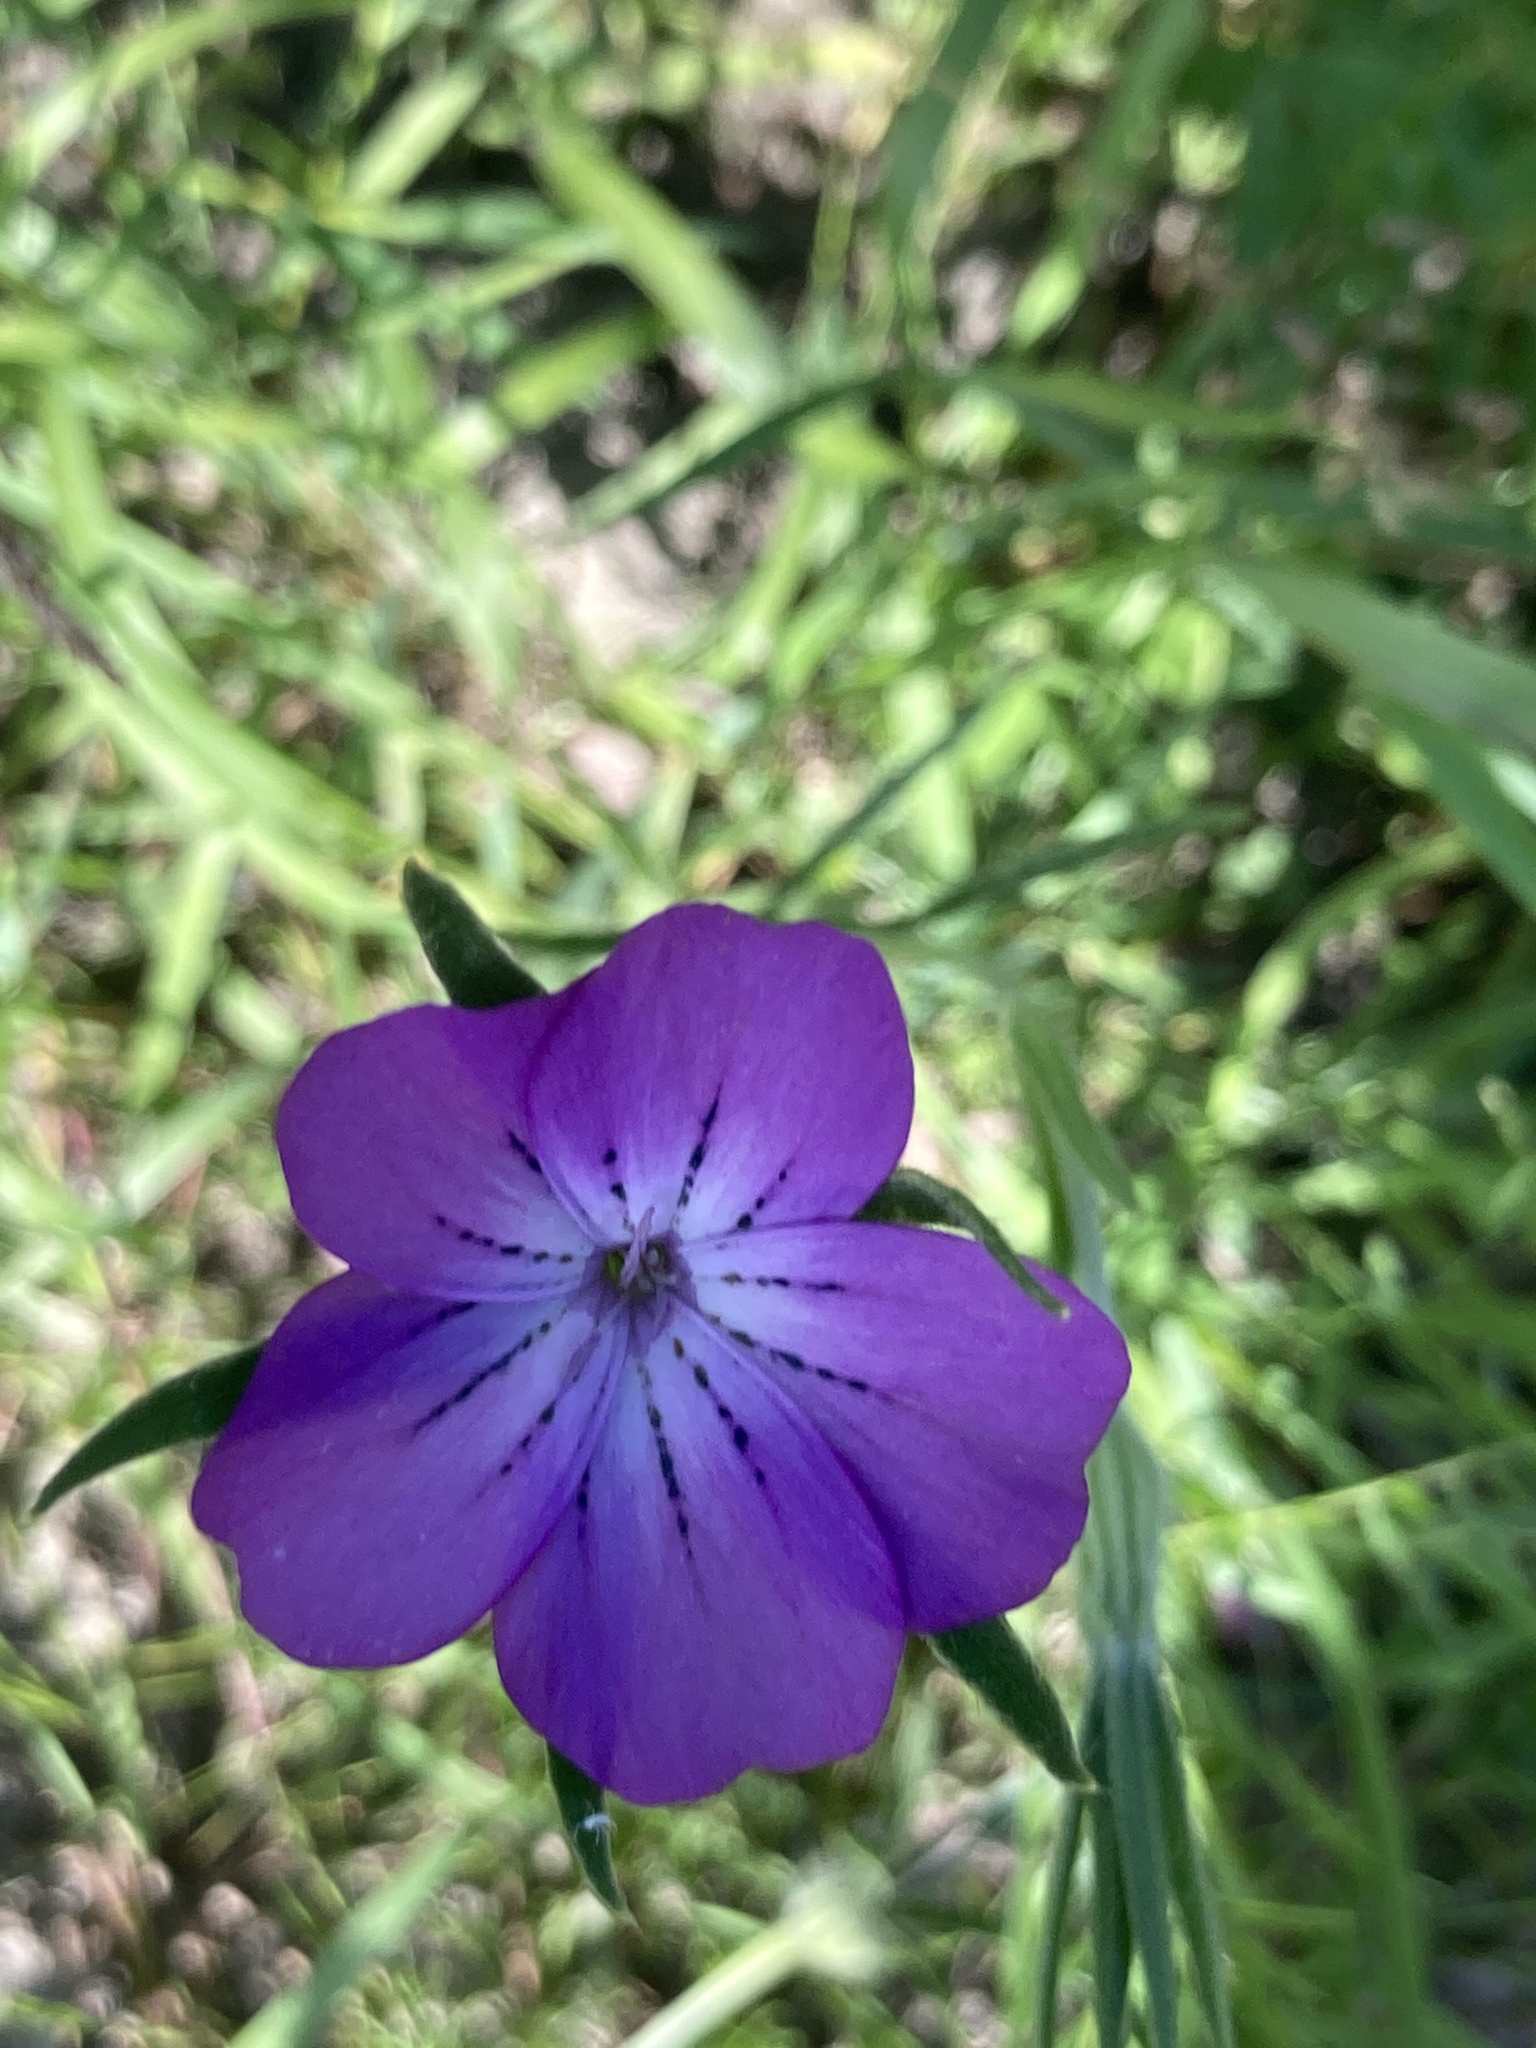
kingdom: Plantae
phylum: Tracheophyta
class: Magnoliopsida
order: Caryophyllales
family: Caryophyllaceae
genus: Agrostemma
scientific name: Agrostemma githago
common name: Common corncockle
